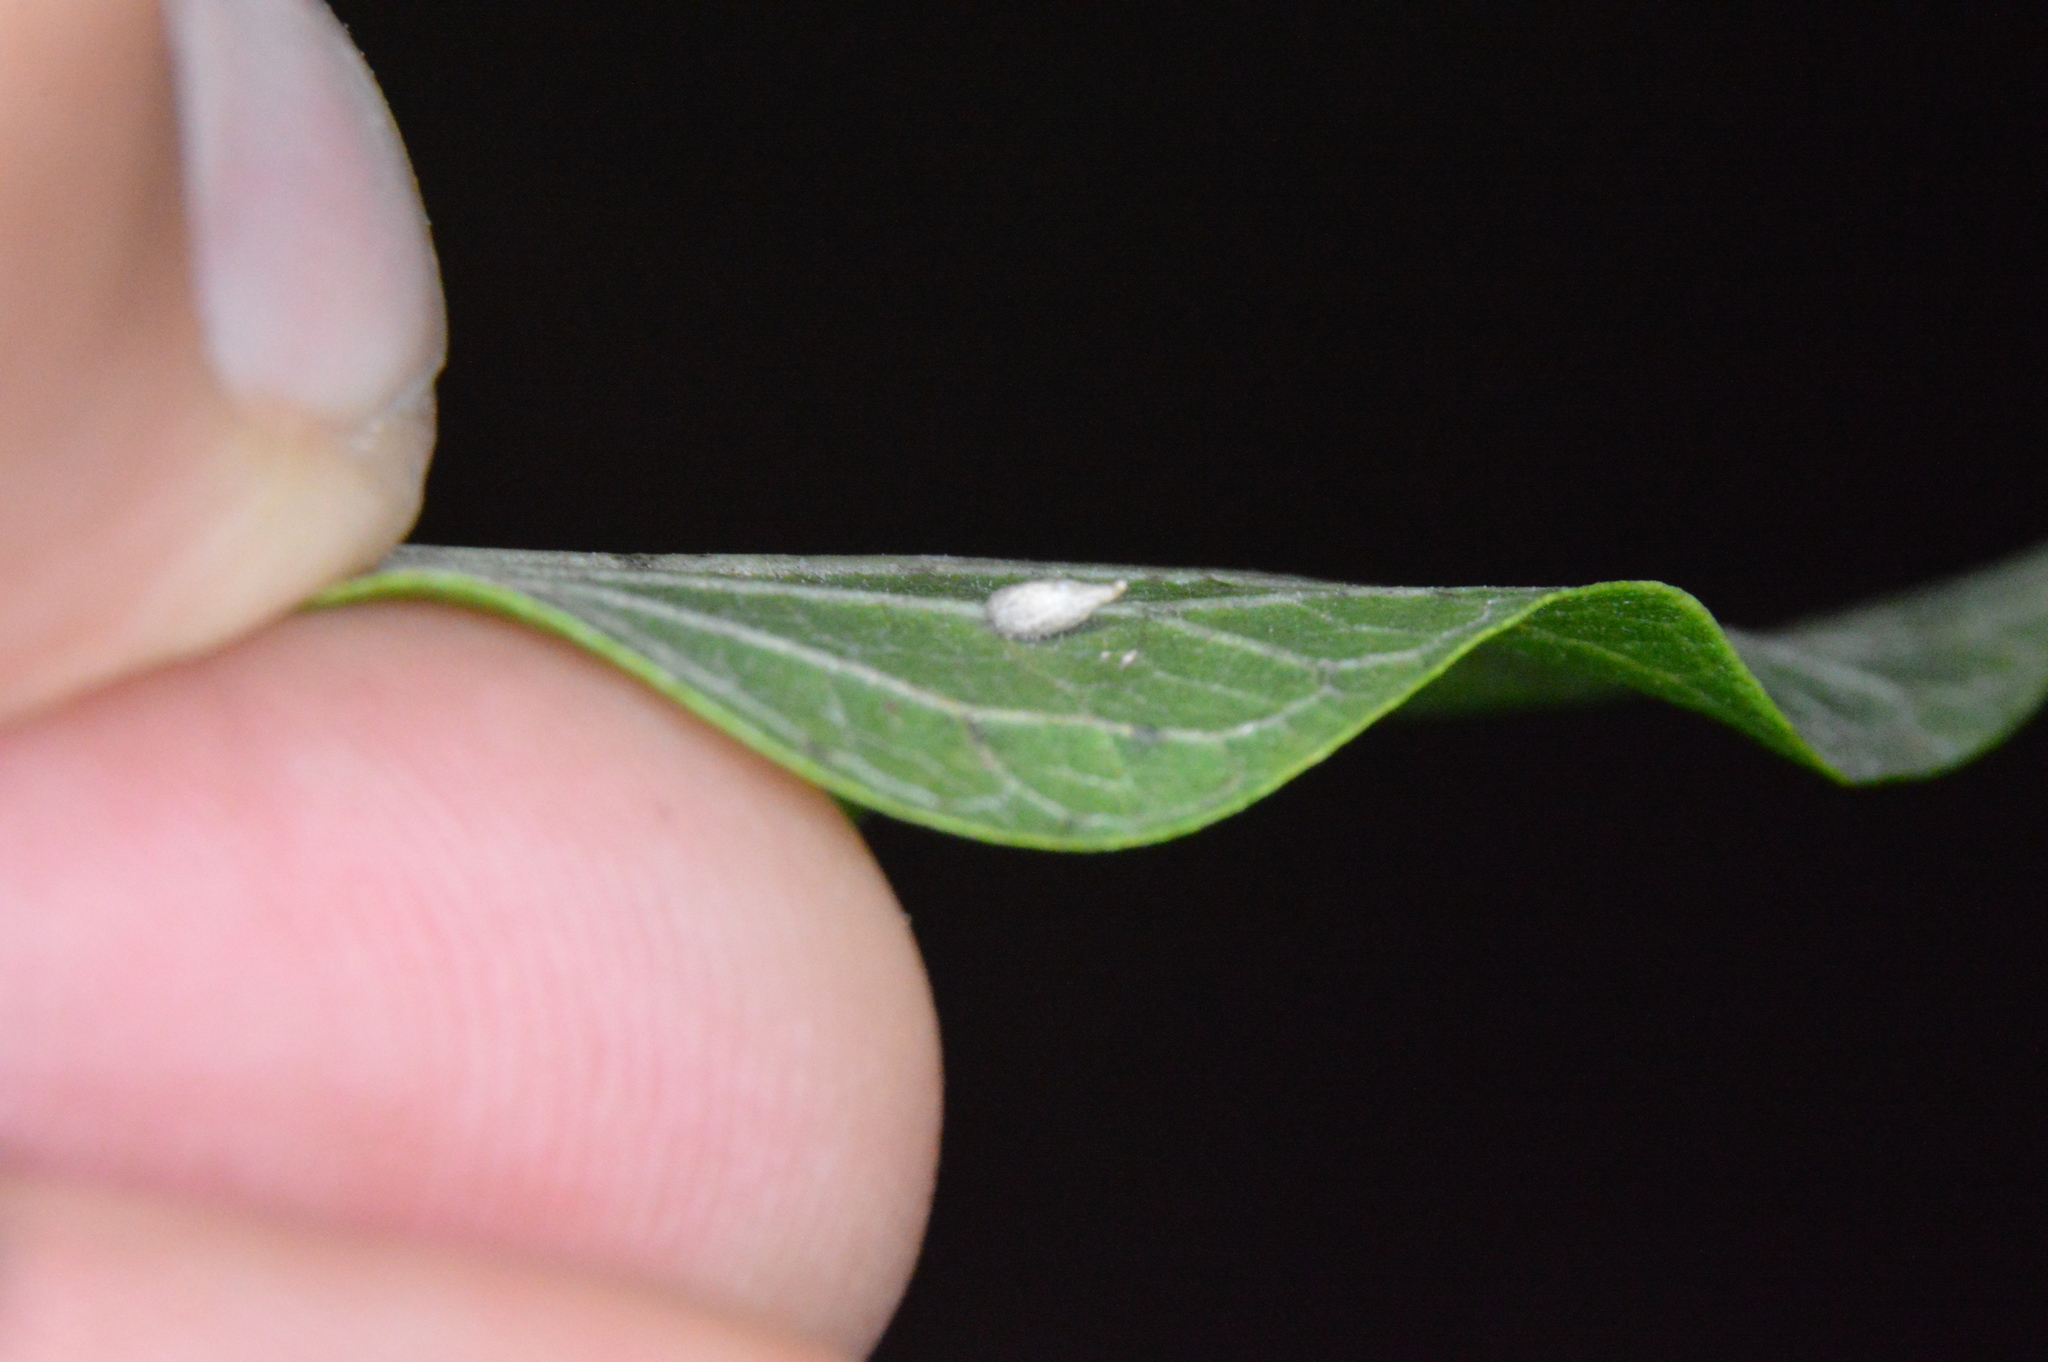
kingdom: Animalia
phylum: Arthropoda
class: Insecta
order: Diptera
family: Cecidomyiidae
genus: Celticecis
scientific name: Celticecis supina
